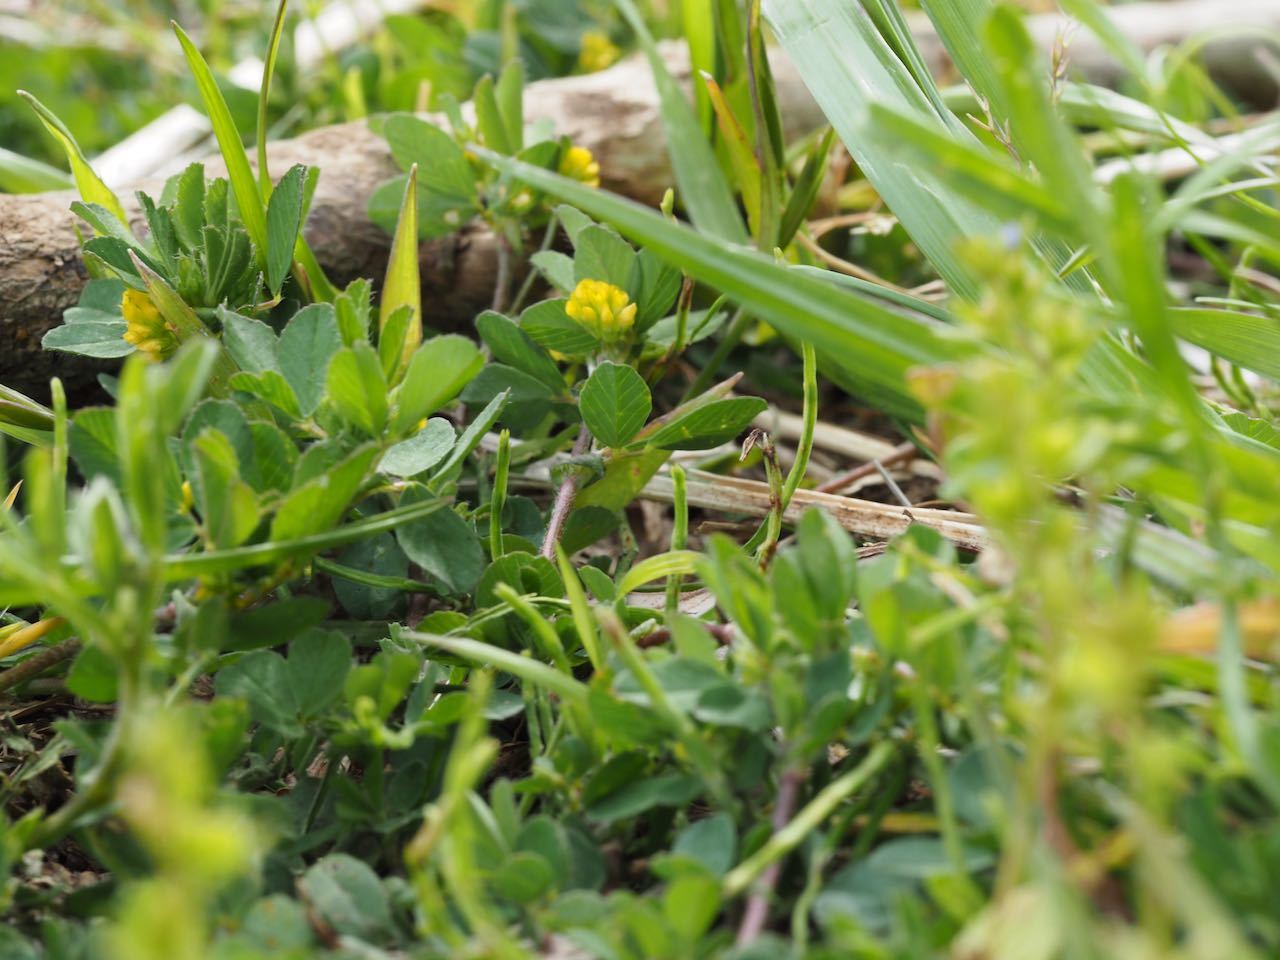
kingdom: Plantae
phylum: Tracheophyta
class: Magnoliopsida
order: Fabales
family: Fabaceae
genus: Trifolium
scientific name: Trifolium dubium
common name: Suckling clover
